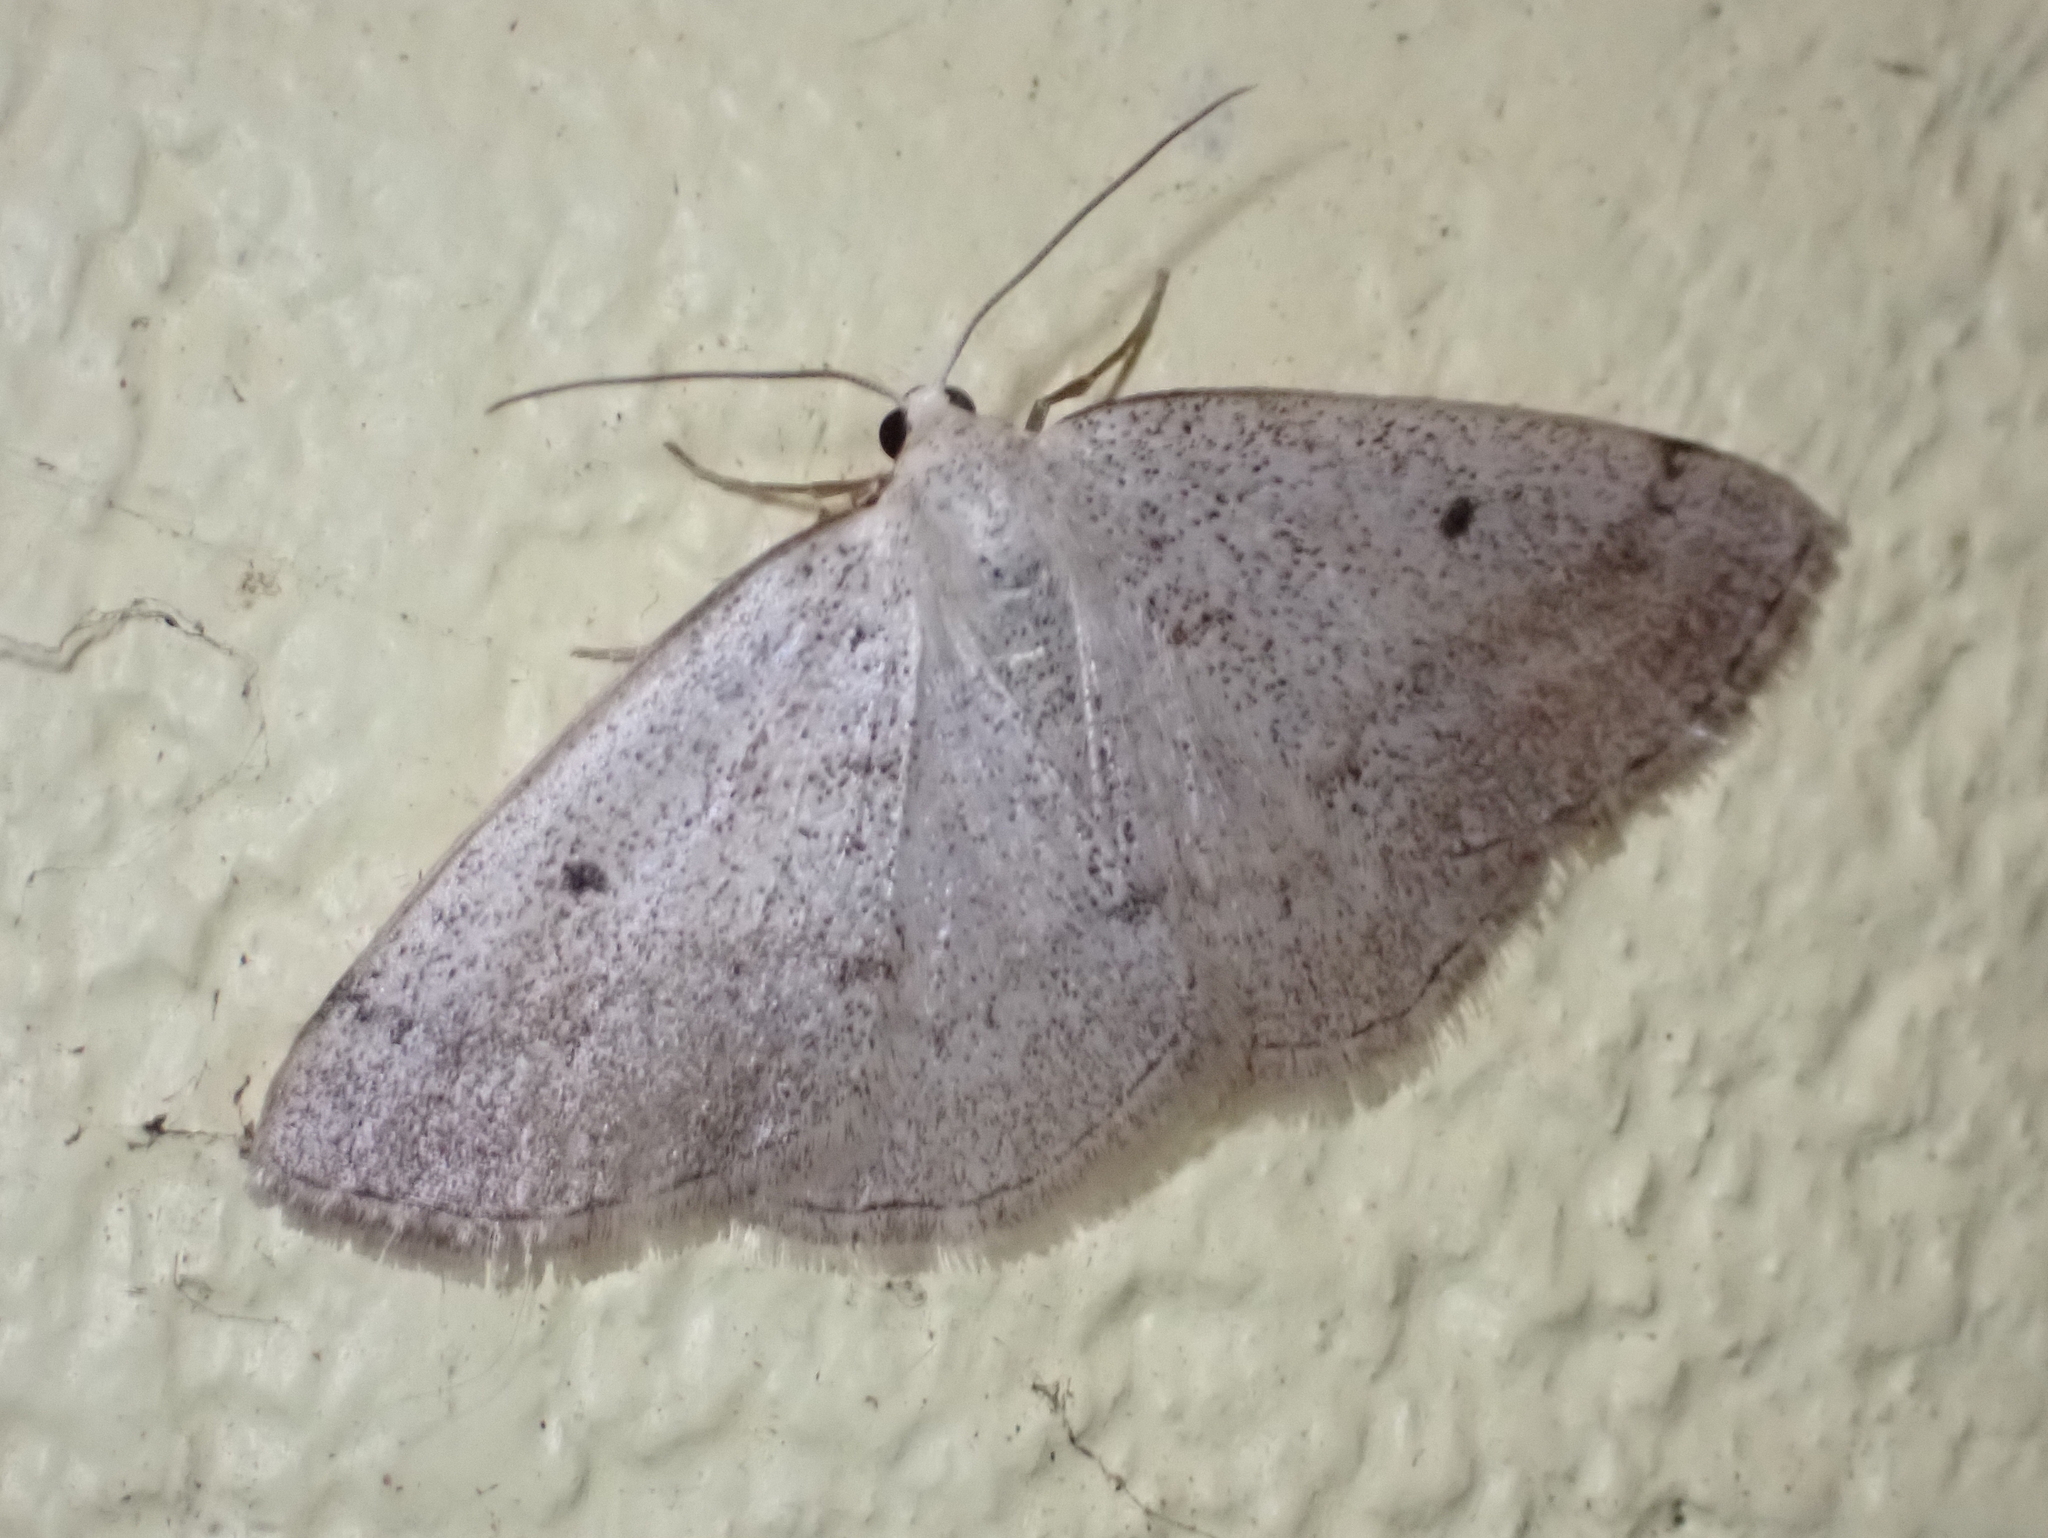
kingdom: Animalia
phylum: Arthropoda
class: Insecta
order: Lepidoptera
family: Geometridae
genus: Lomographa
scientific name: Lomographa glomeraria
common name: Gray spring moth
